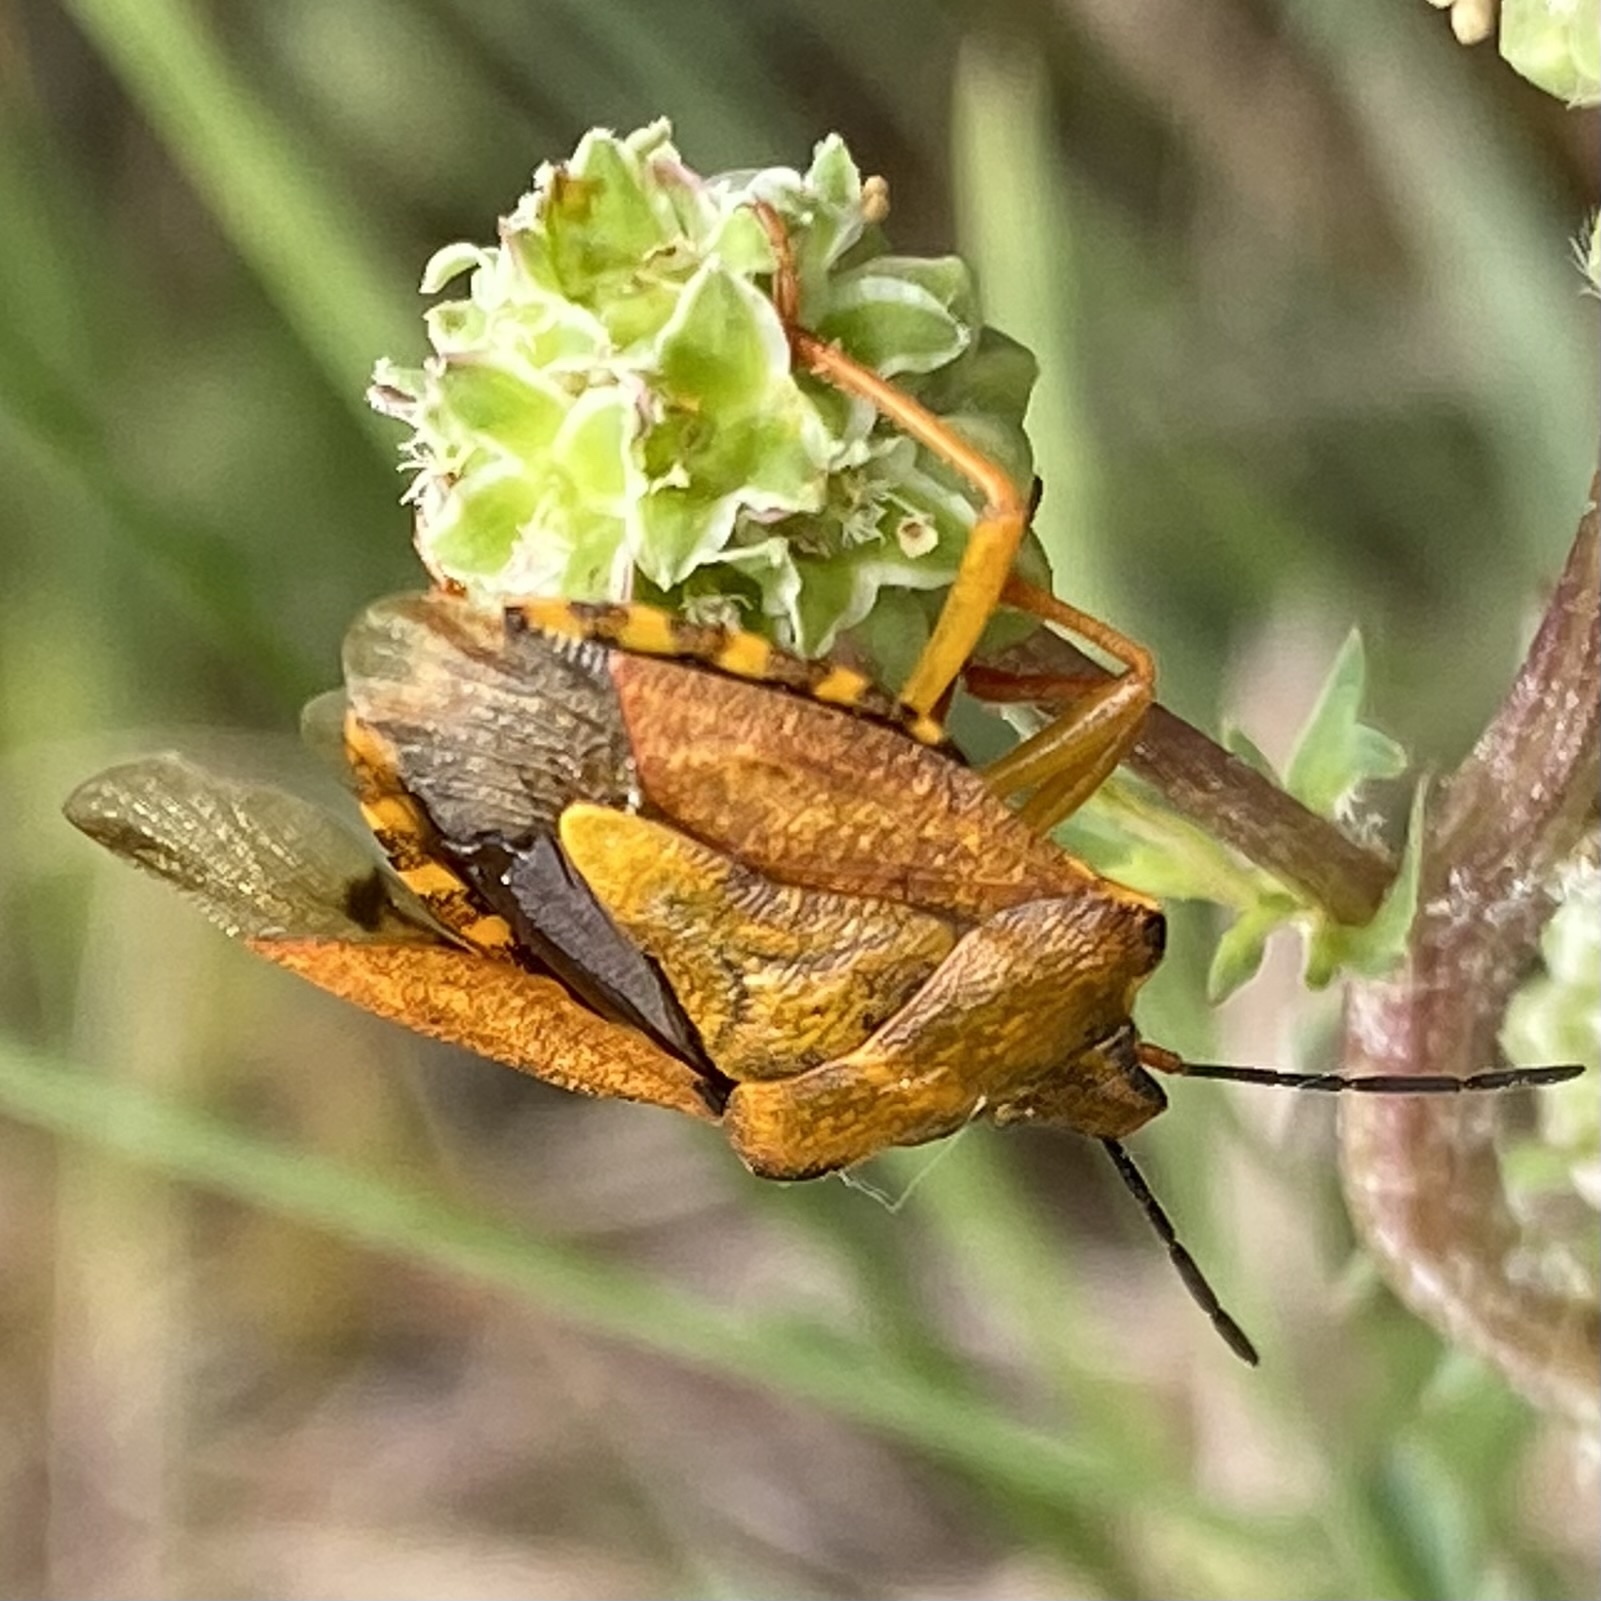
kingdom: Animalia
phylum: Arthropoda
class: Insecta
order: Hemiptera
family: Pentatomidae
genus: Carpocoris
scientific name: Carpocoris purpureipennis
